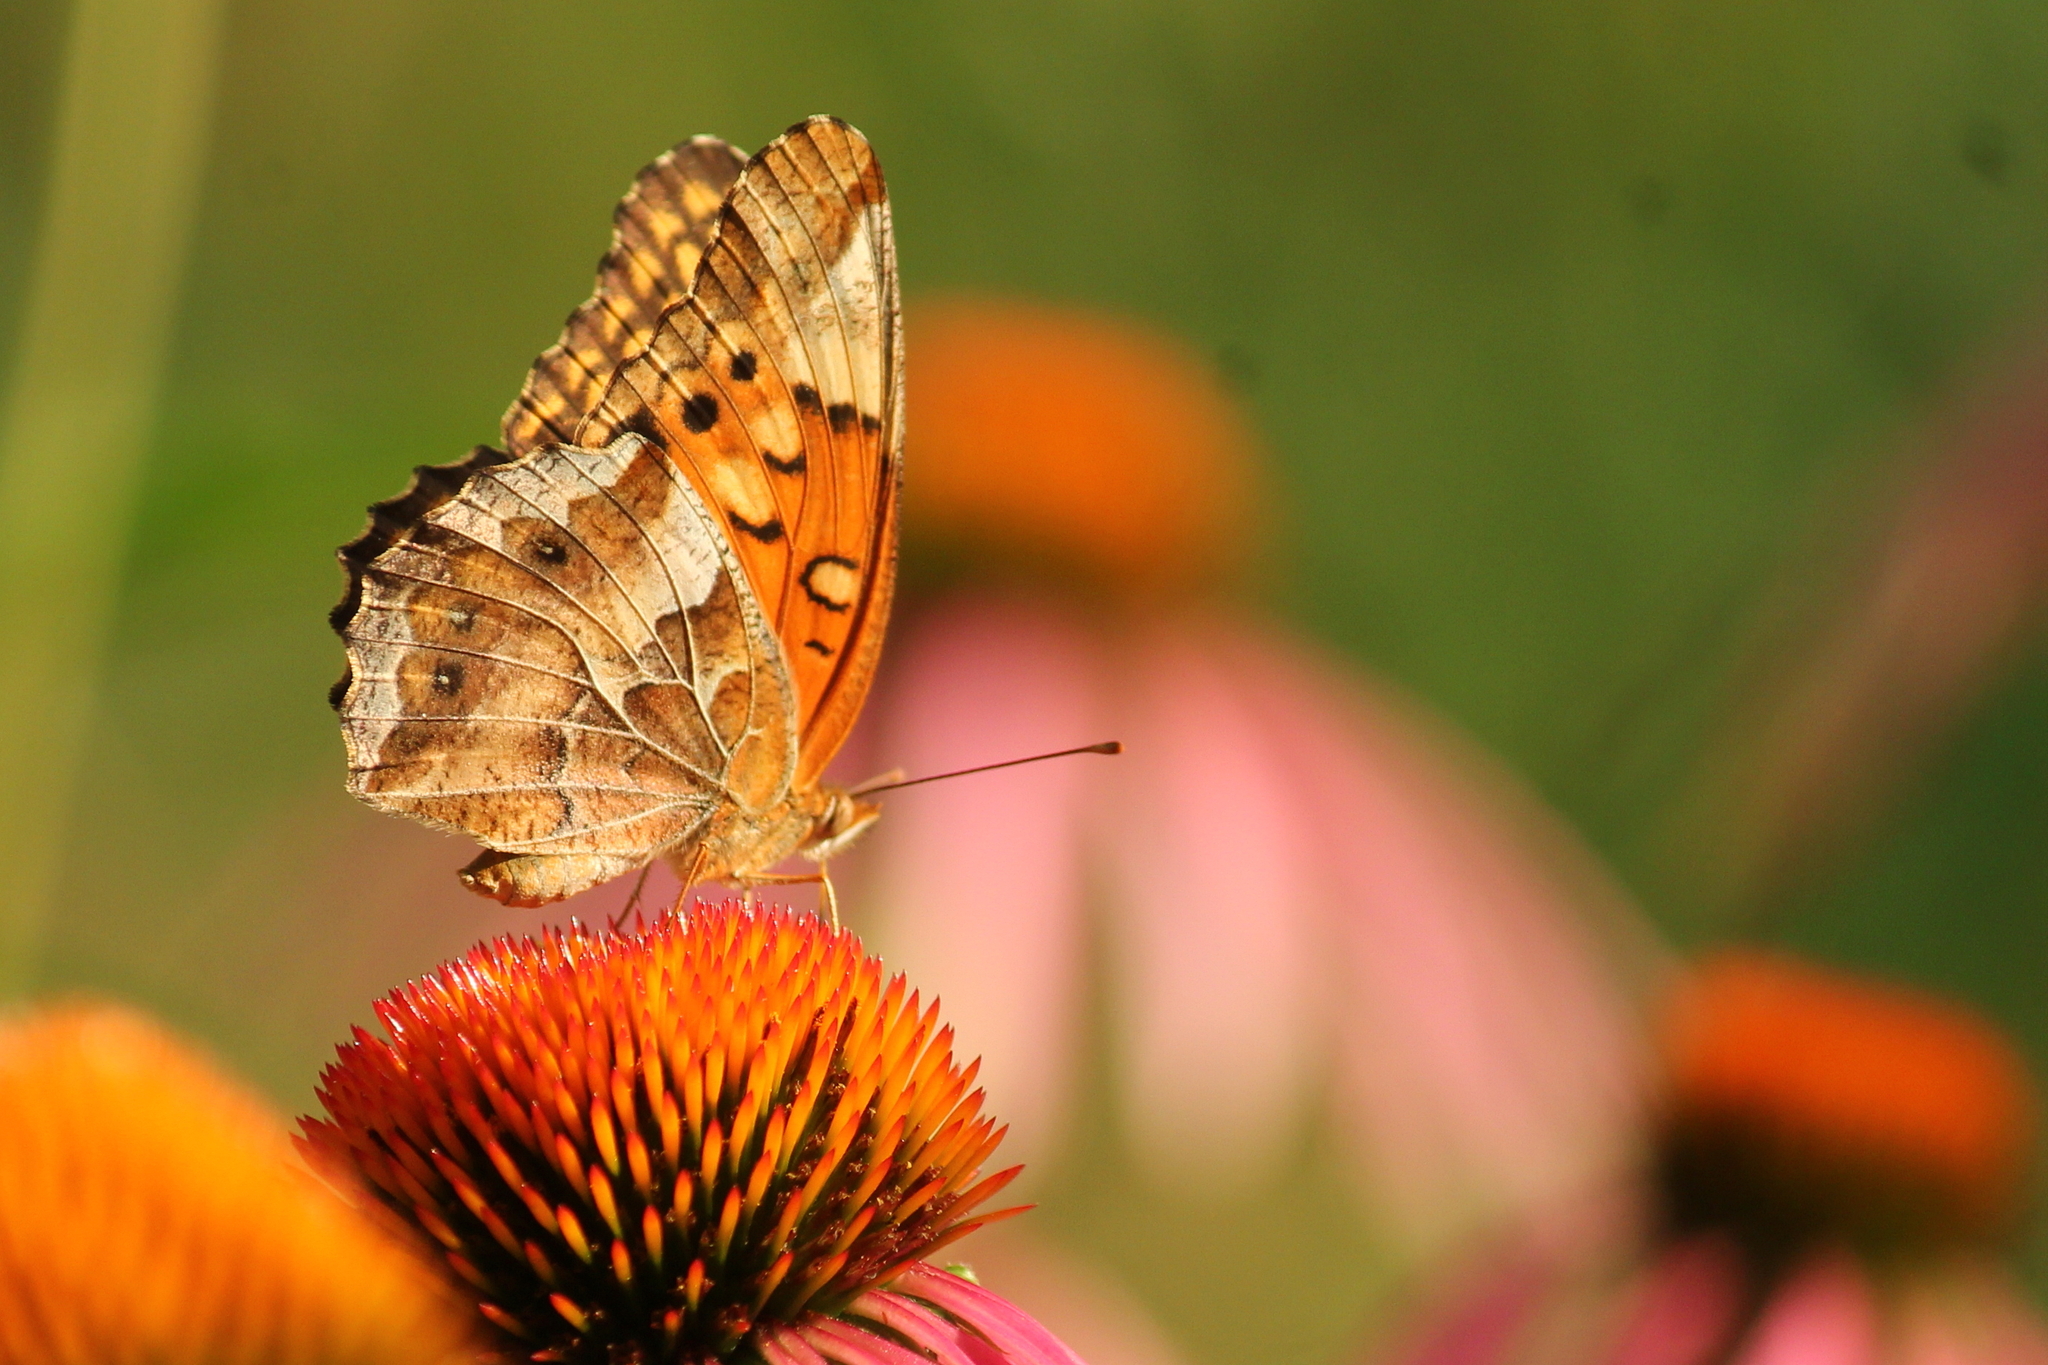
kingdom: Animalia
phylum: Arthropoda
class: Insecta
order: Lepidoptera
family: Nymphalidae
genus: Euptoieta
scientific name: Euptoieta claudia
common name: Variegated fritillary
